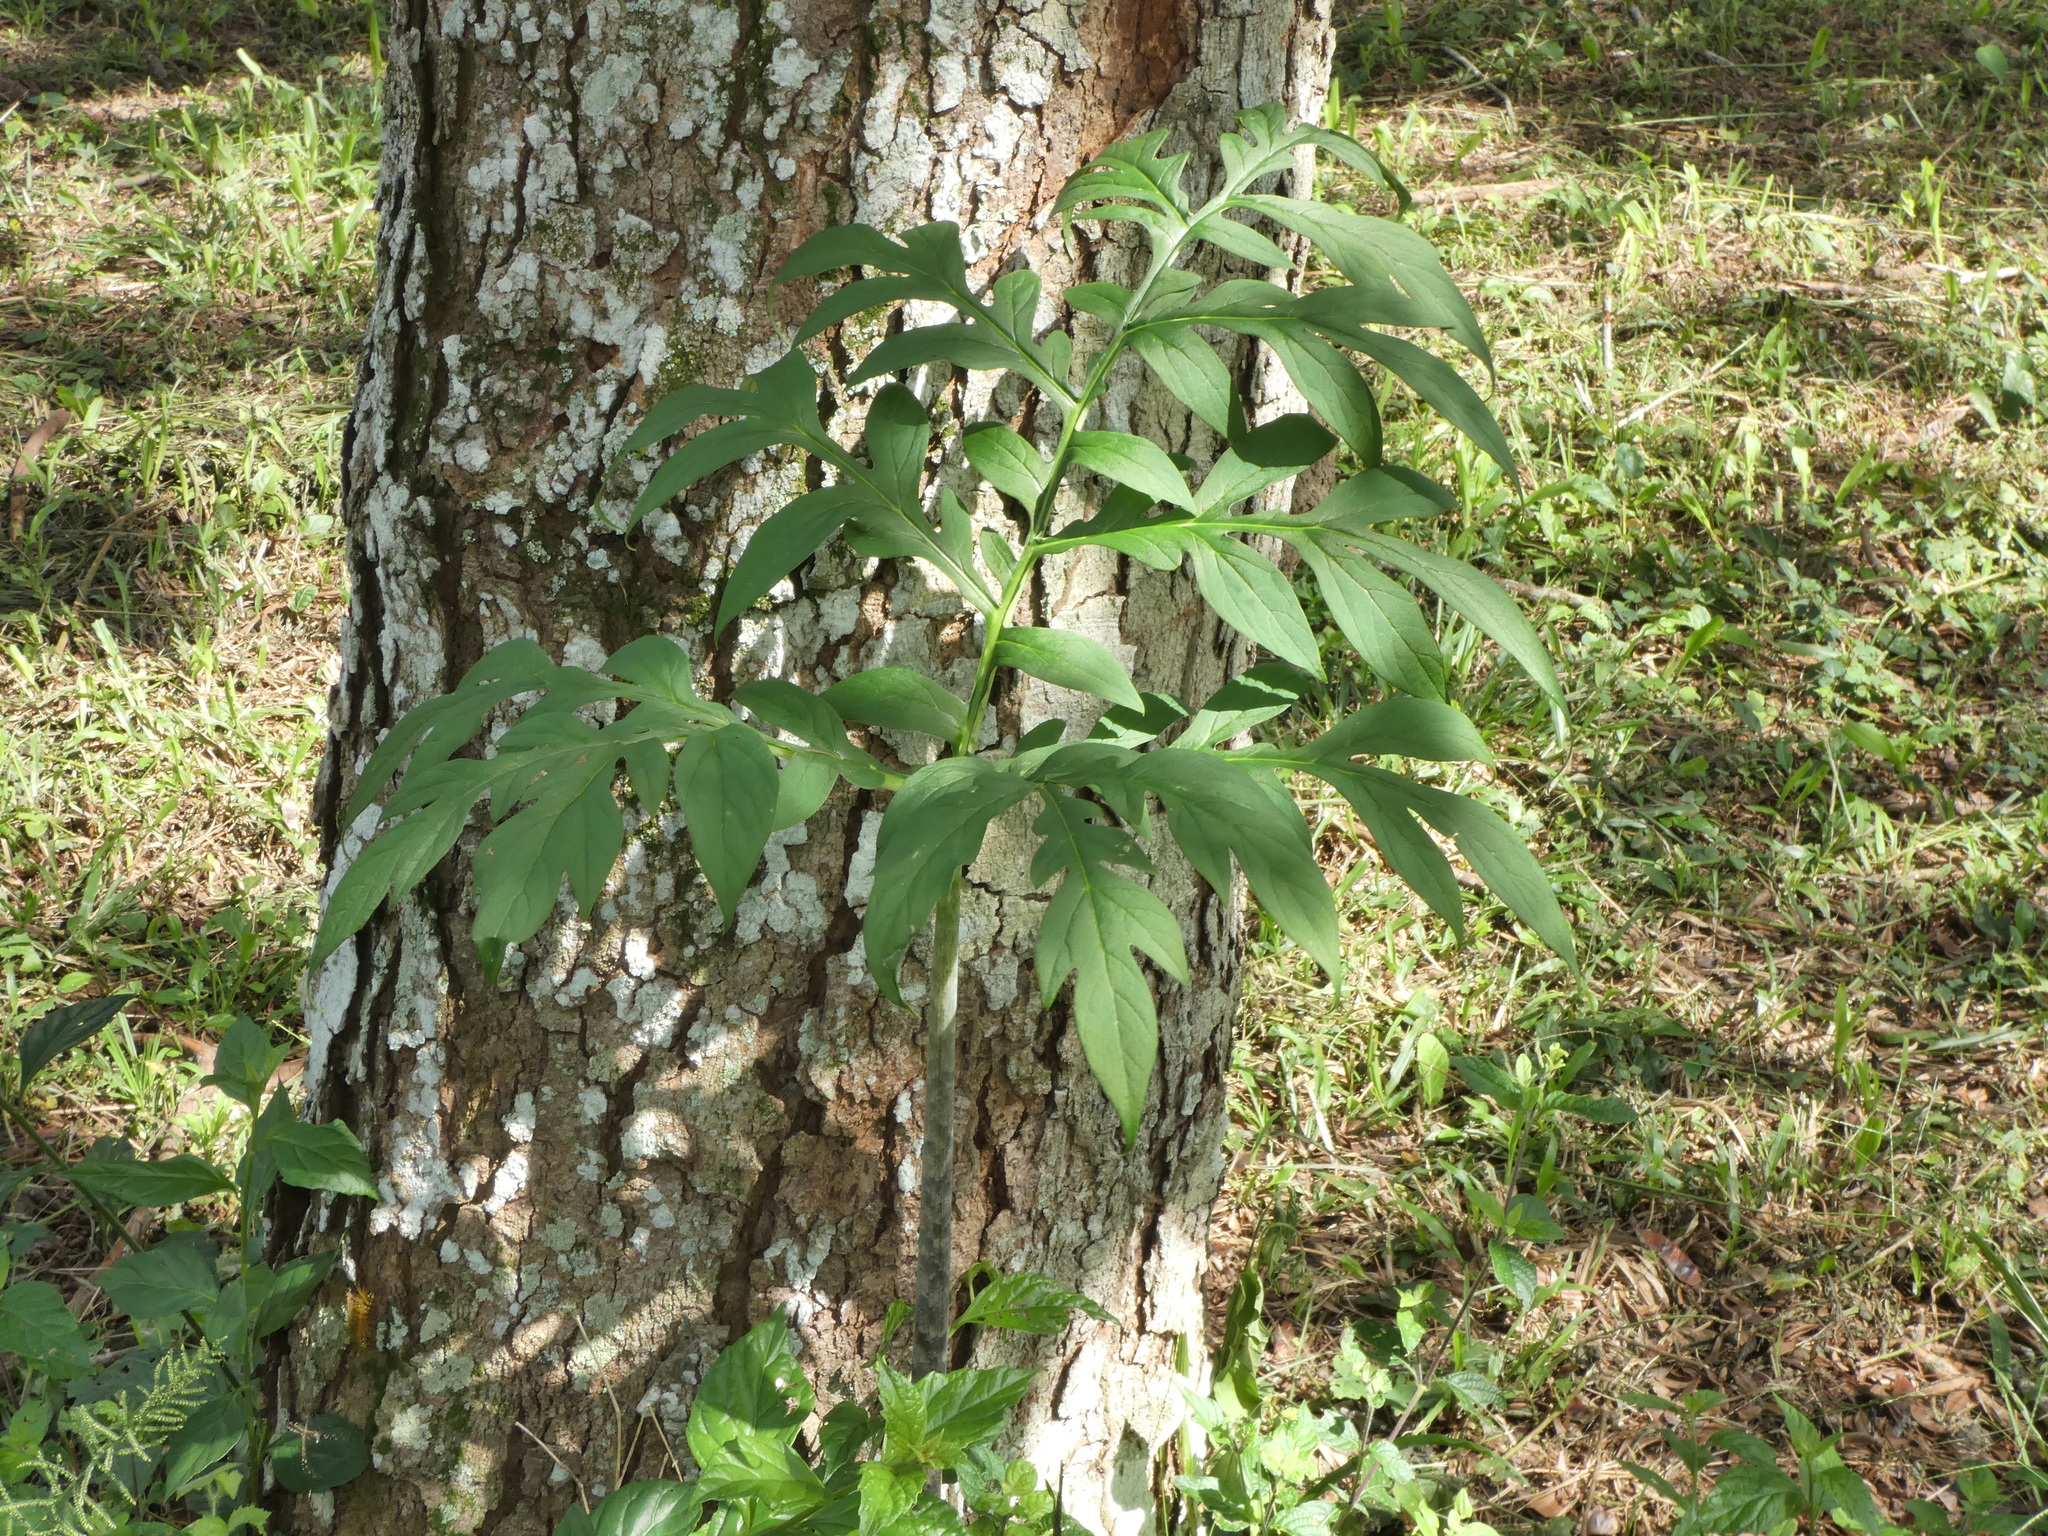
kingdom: Plantae
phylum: Tracheophyta
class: Liliopsida
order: Alismatales
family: Araceae
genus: Taccarum
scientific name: Taccarum ulei
